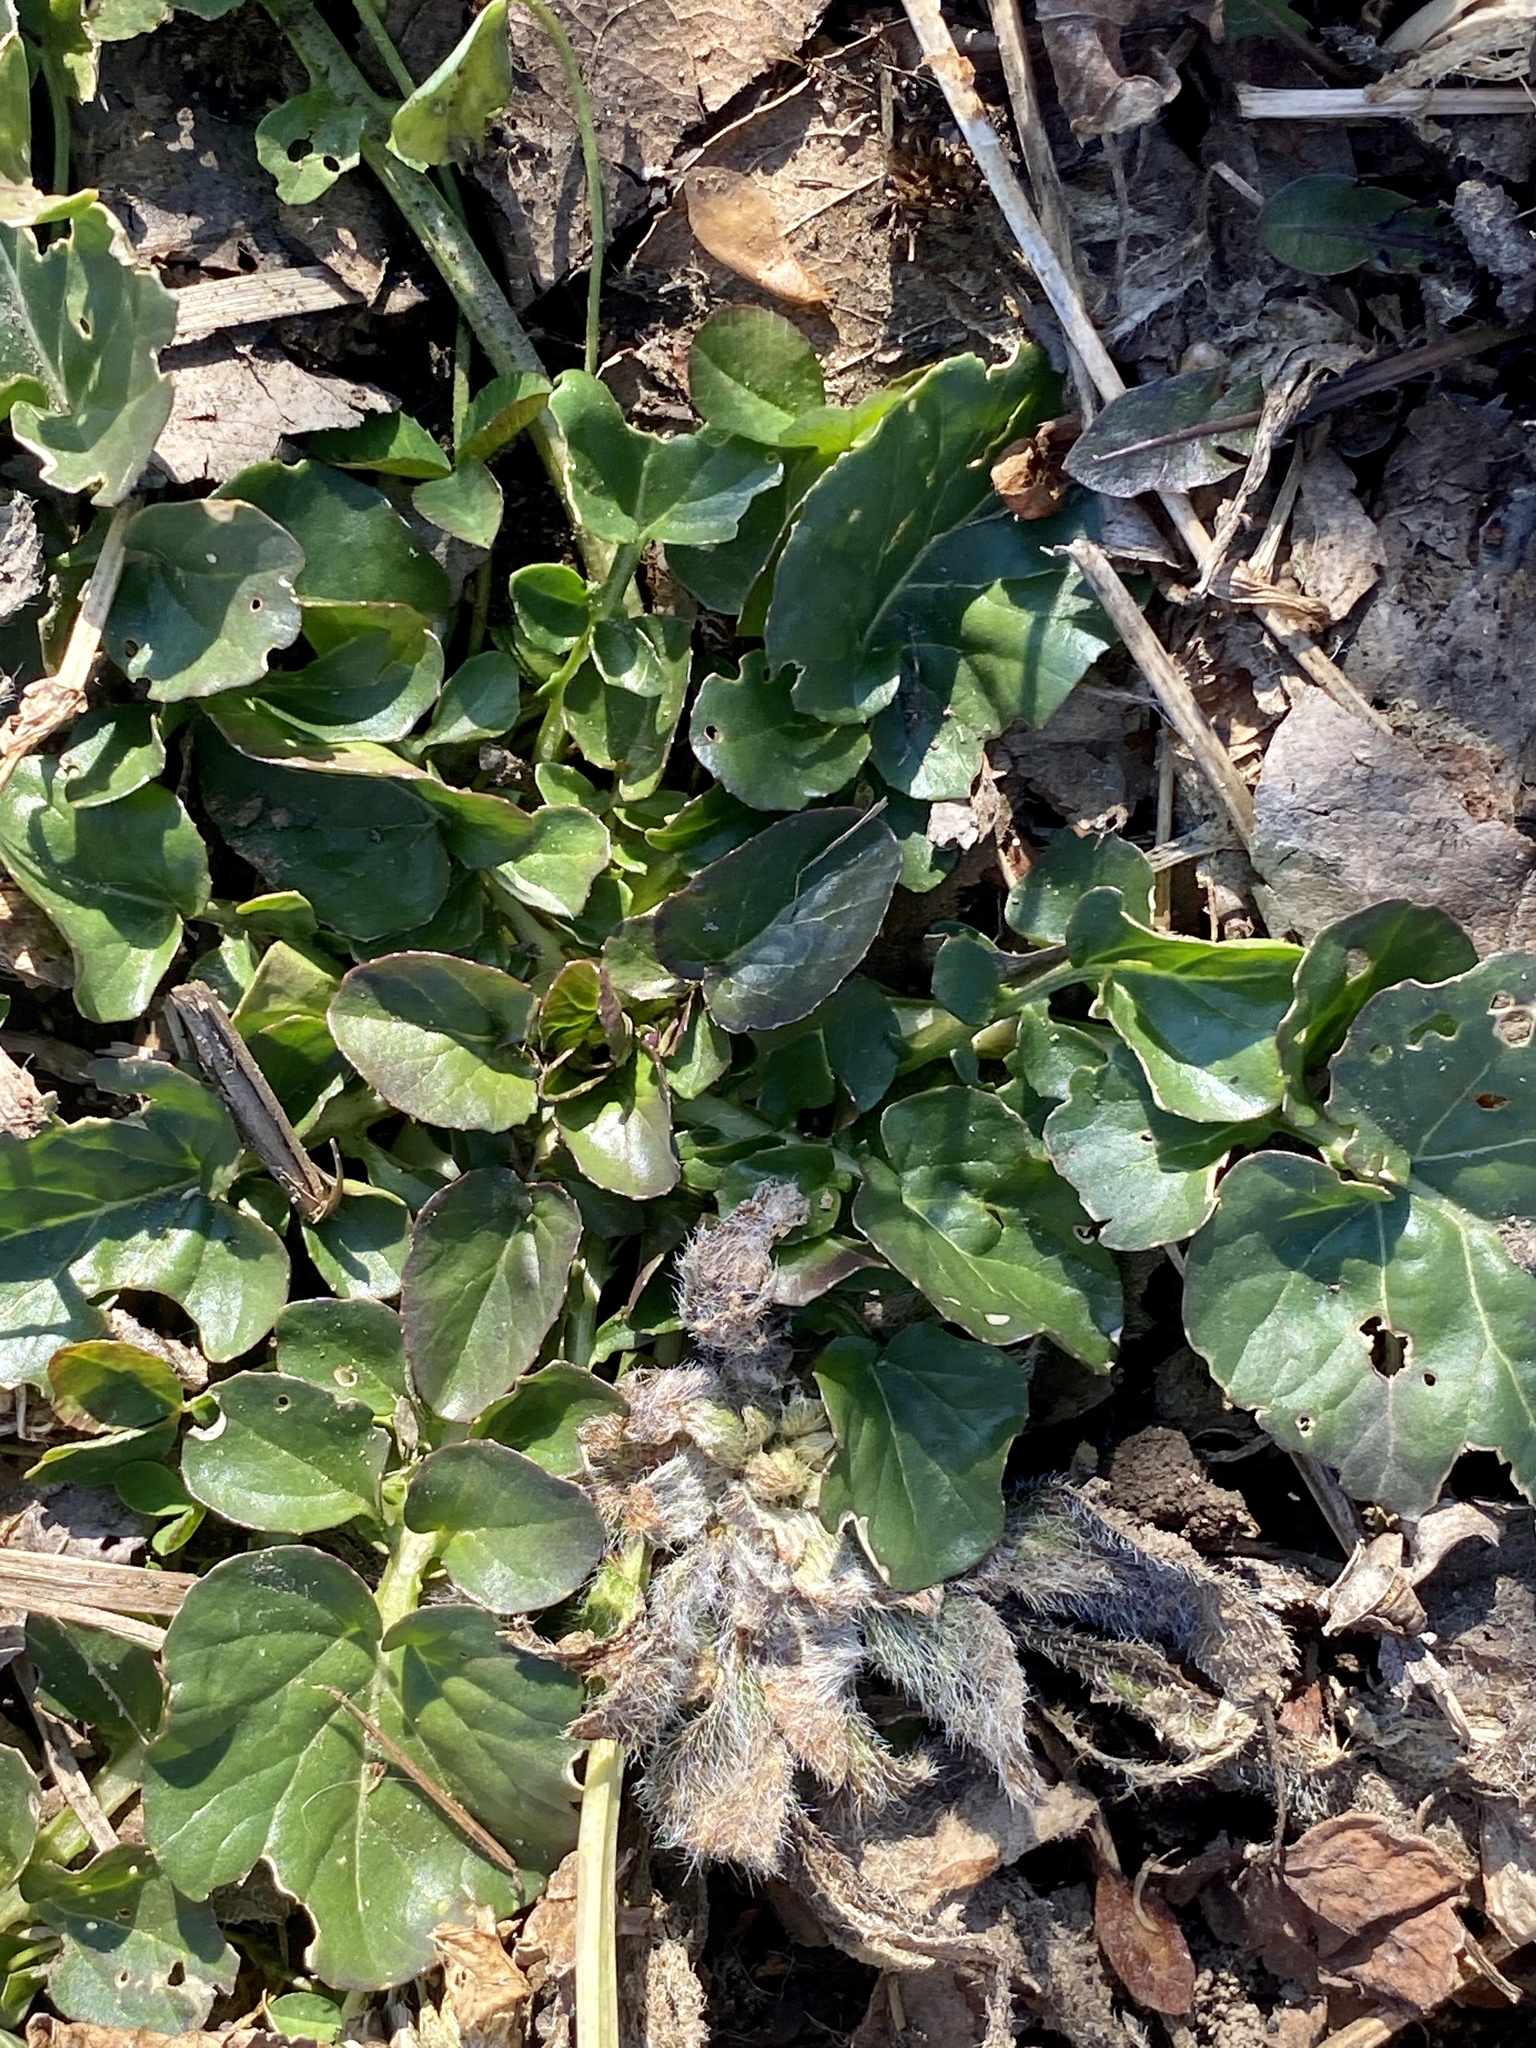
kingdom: Plantae
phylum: Tracheophyta
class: Magnoliopsida
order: Brassicales
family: Brassicaceae
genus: Barbarea
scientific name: Barbarea vulgaris
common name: Cressy-greens
